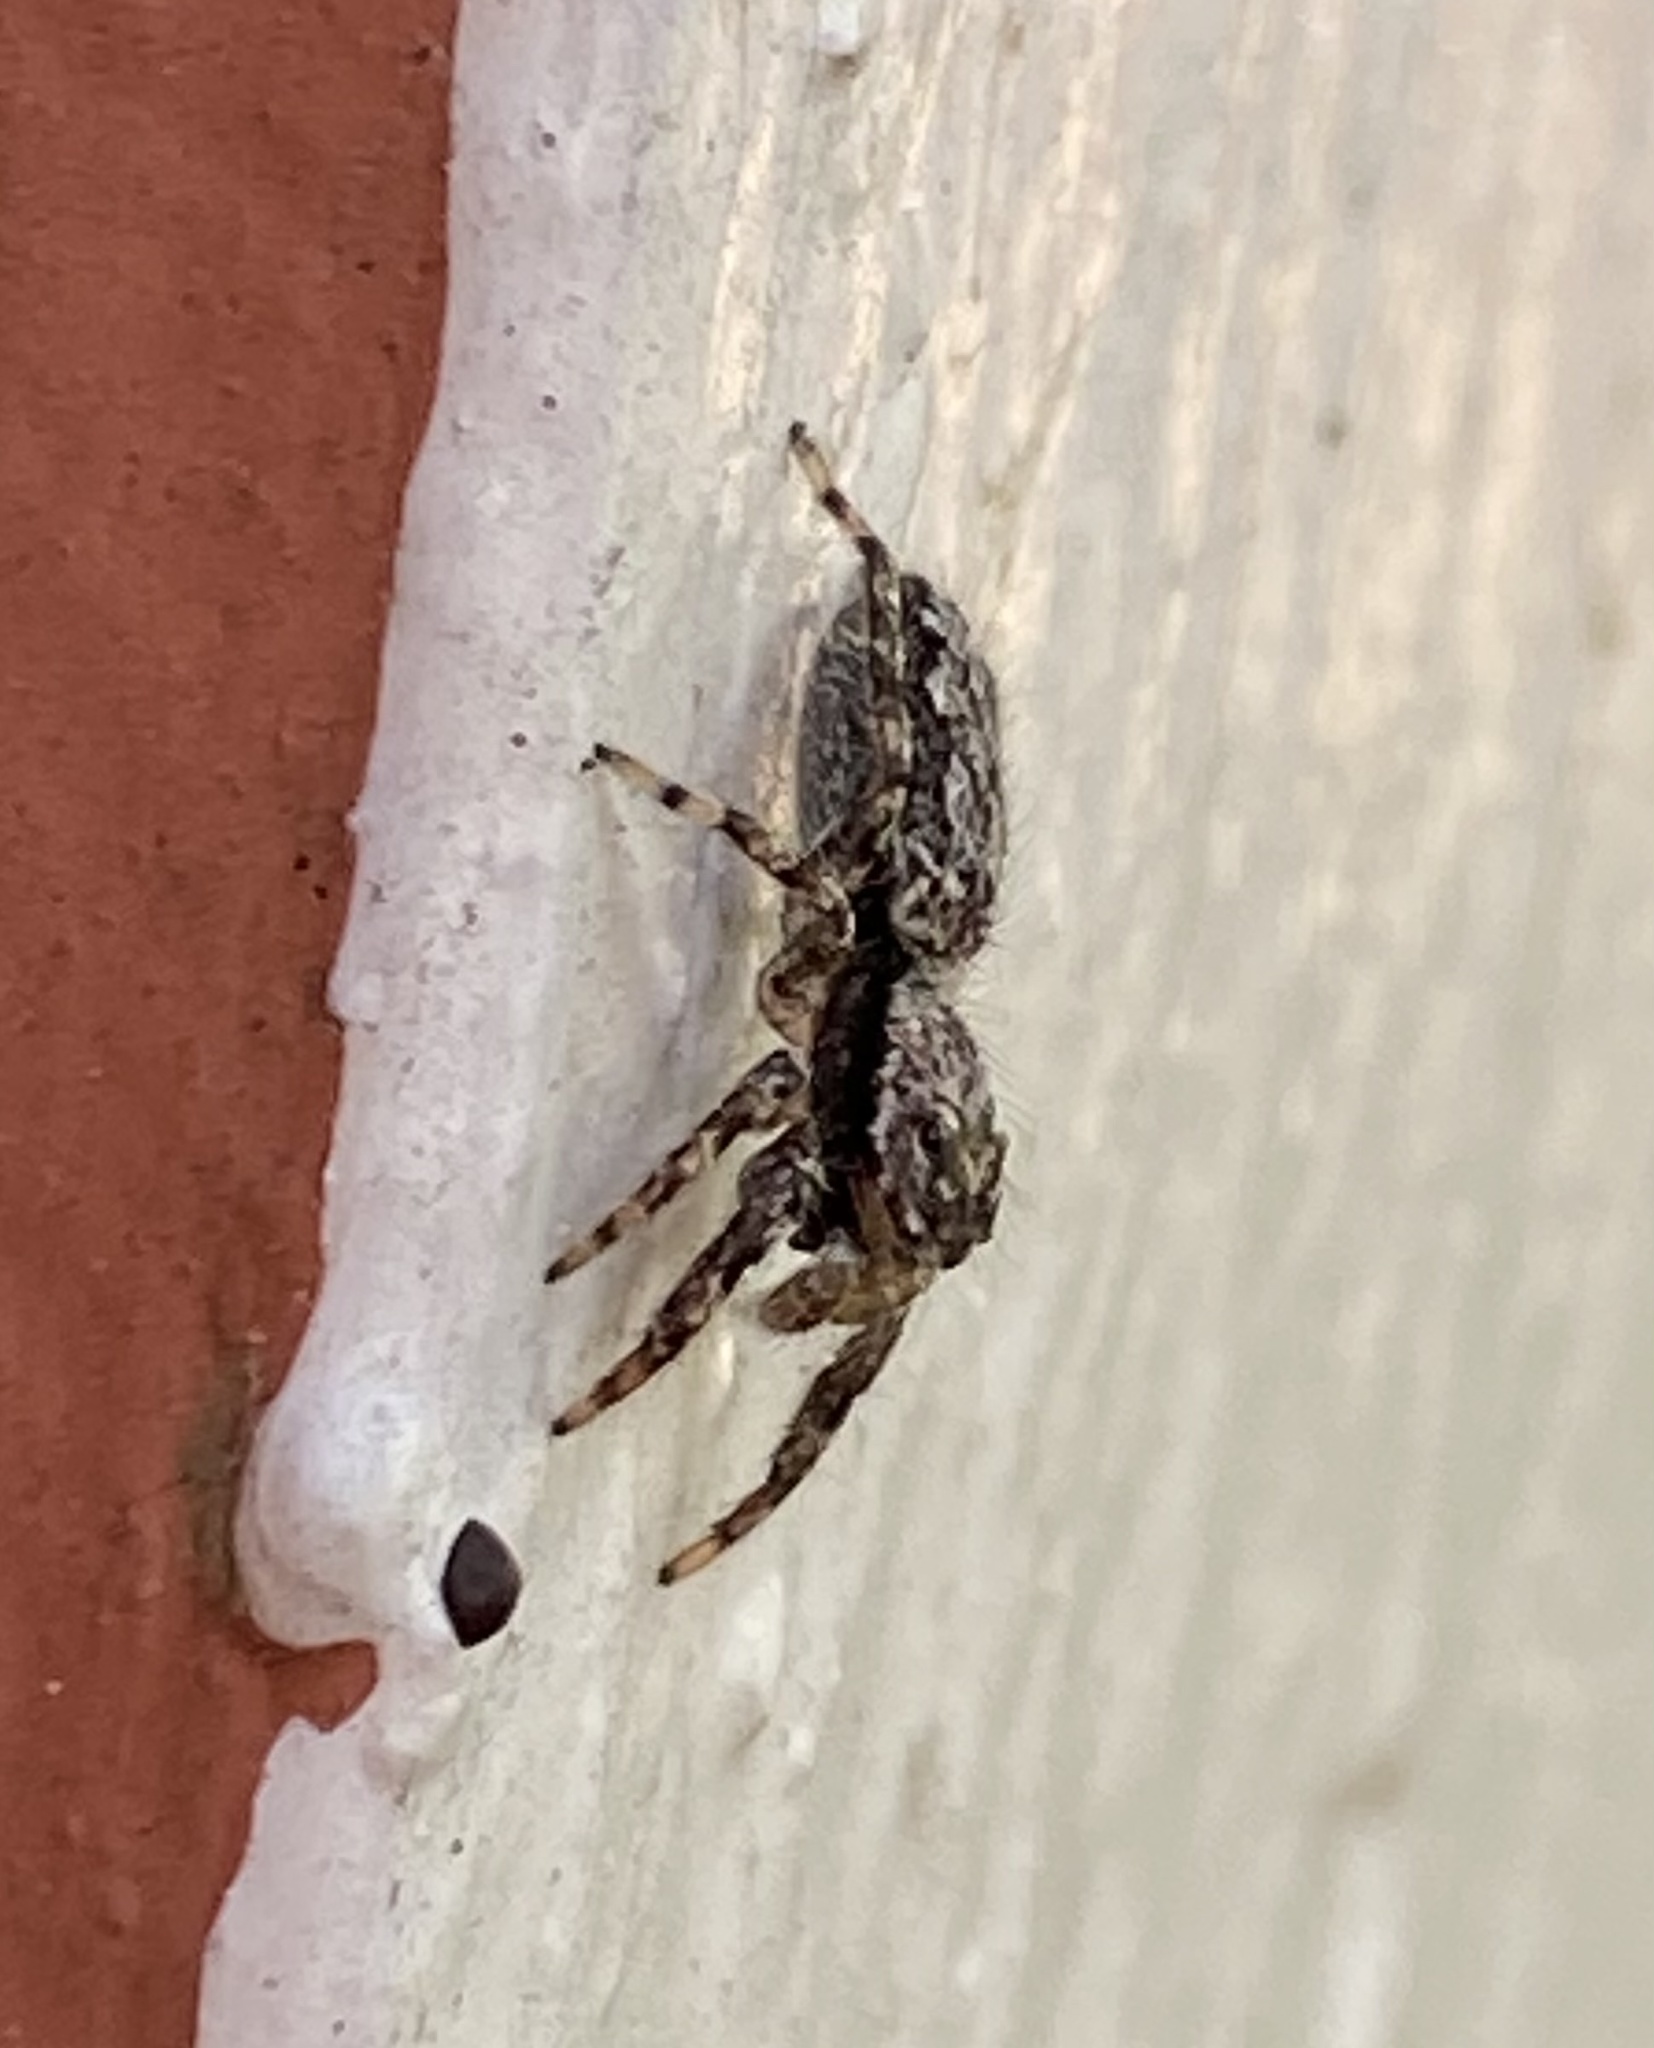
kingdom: Animalia
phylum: Arthropoda
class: Arachnida
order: Araneae
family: Salticidae
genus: Platycryptus
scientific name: Platycryptus undatus
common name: Tan jumping spider
